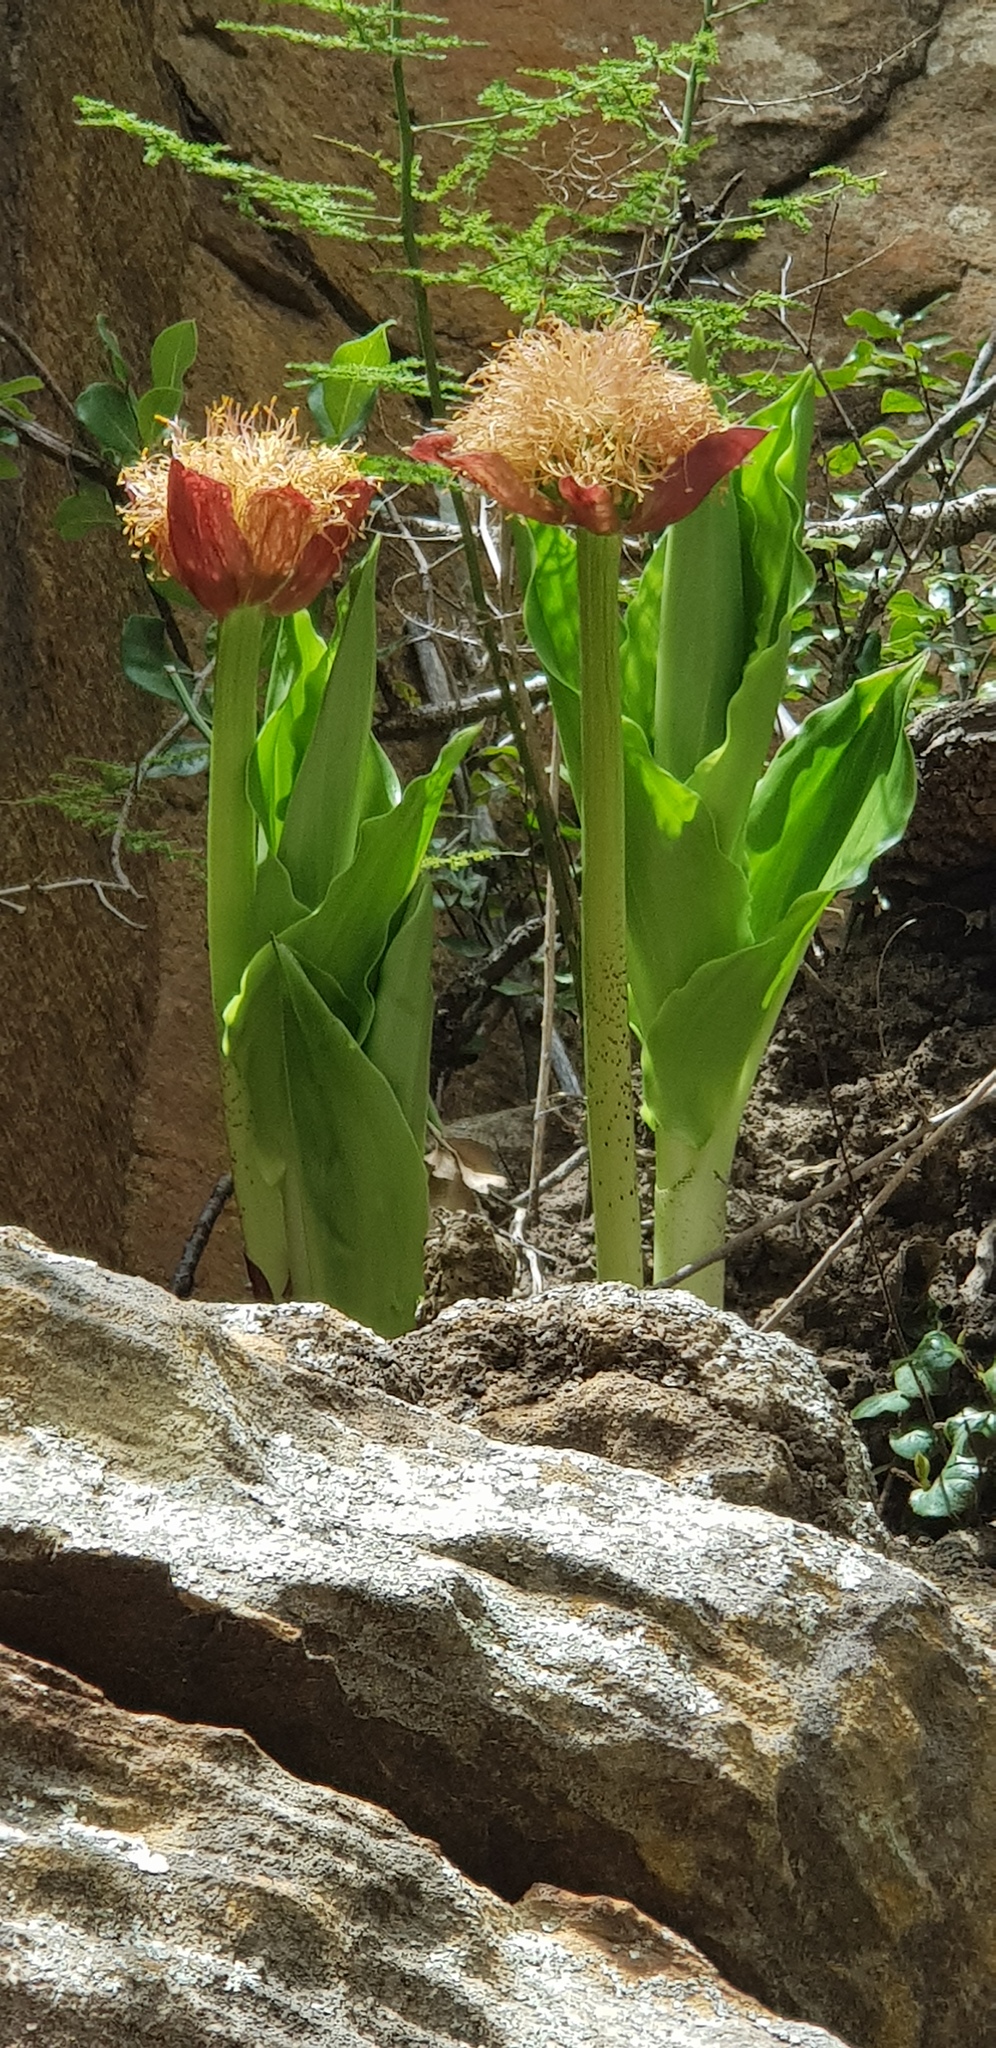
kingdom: Plantae
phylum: Tracheophyta
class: Liliopsida
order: Asparagales
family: Amaryllidaceae
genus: Scadoxus
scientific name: Scadoxus puniceus
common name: Royal-paintbrush
